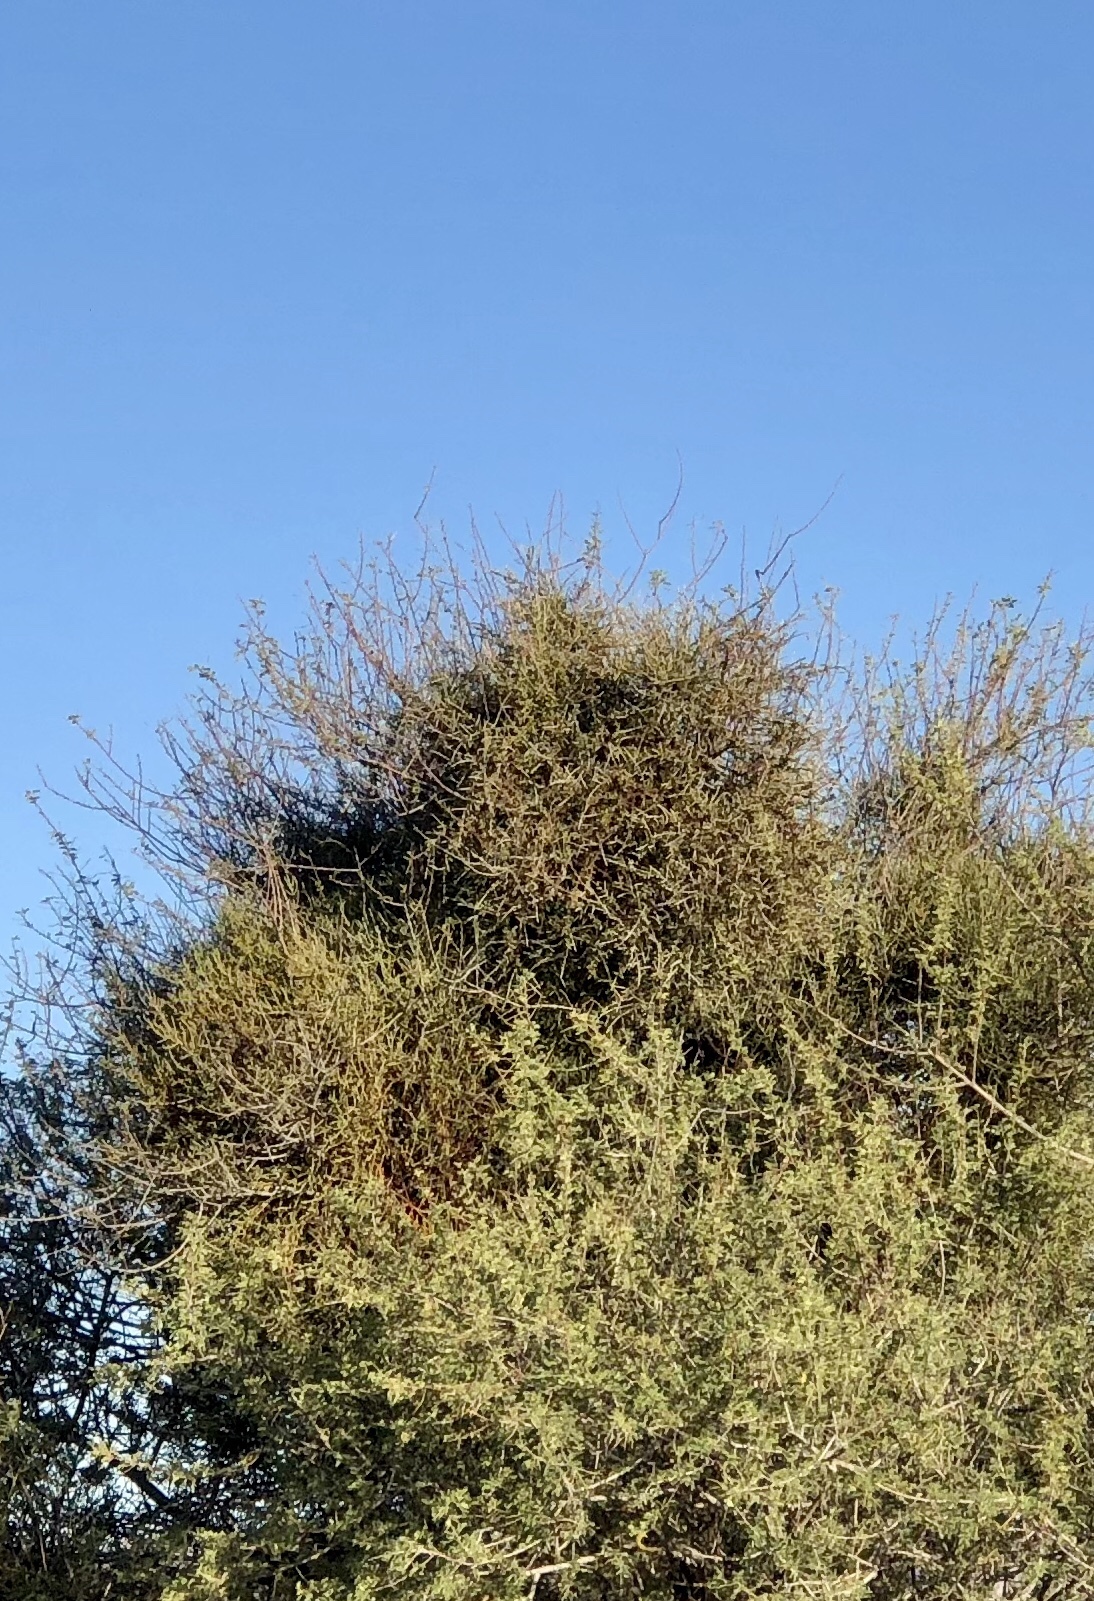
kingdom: Plantae
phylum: Tracheophyta
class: Magnoliopsida
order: Santalales
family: Viscaceae
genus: Phoradendron
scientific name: Phoradendron californicum
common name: Acacia mistletoe
